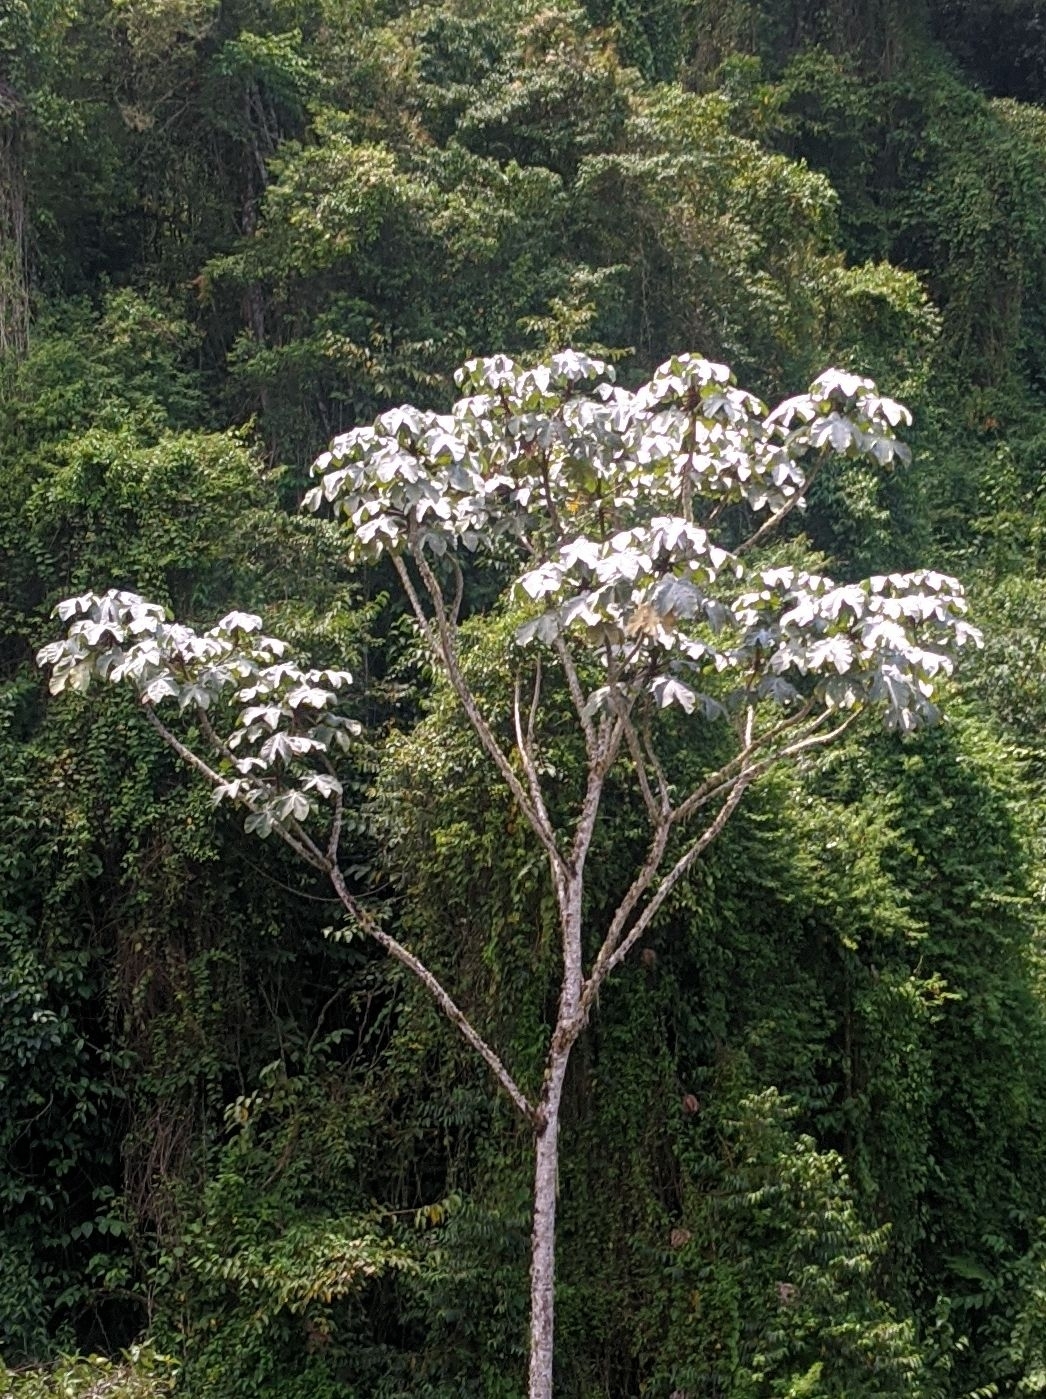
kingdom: Plantae
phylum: Tracheophyta
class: Magnoliopsida
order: Rosales
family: Urticaceae
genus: Cecropia
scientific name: Cecropia telenitida
